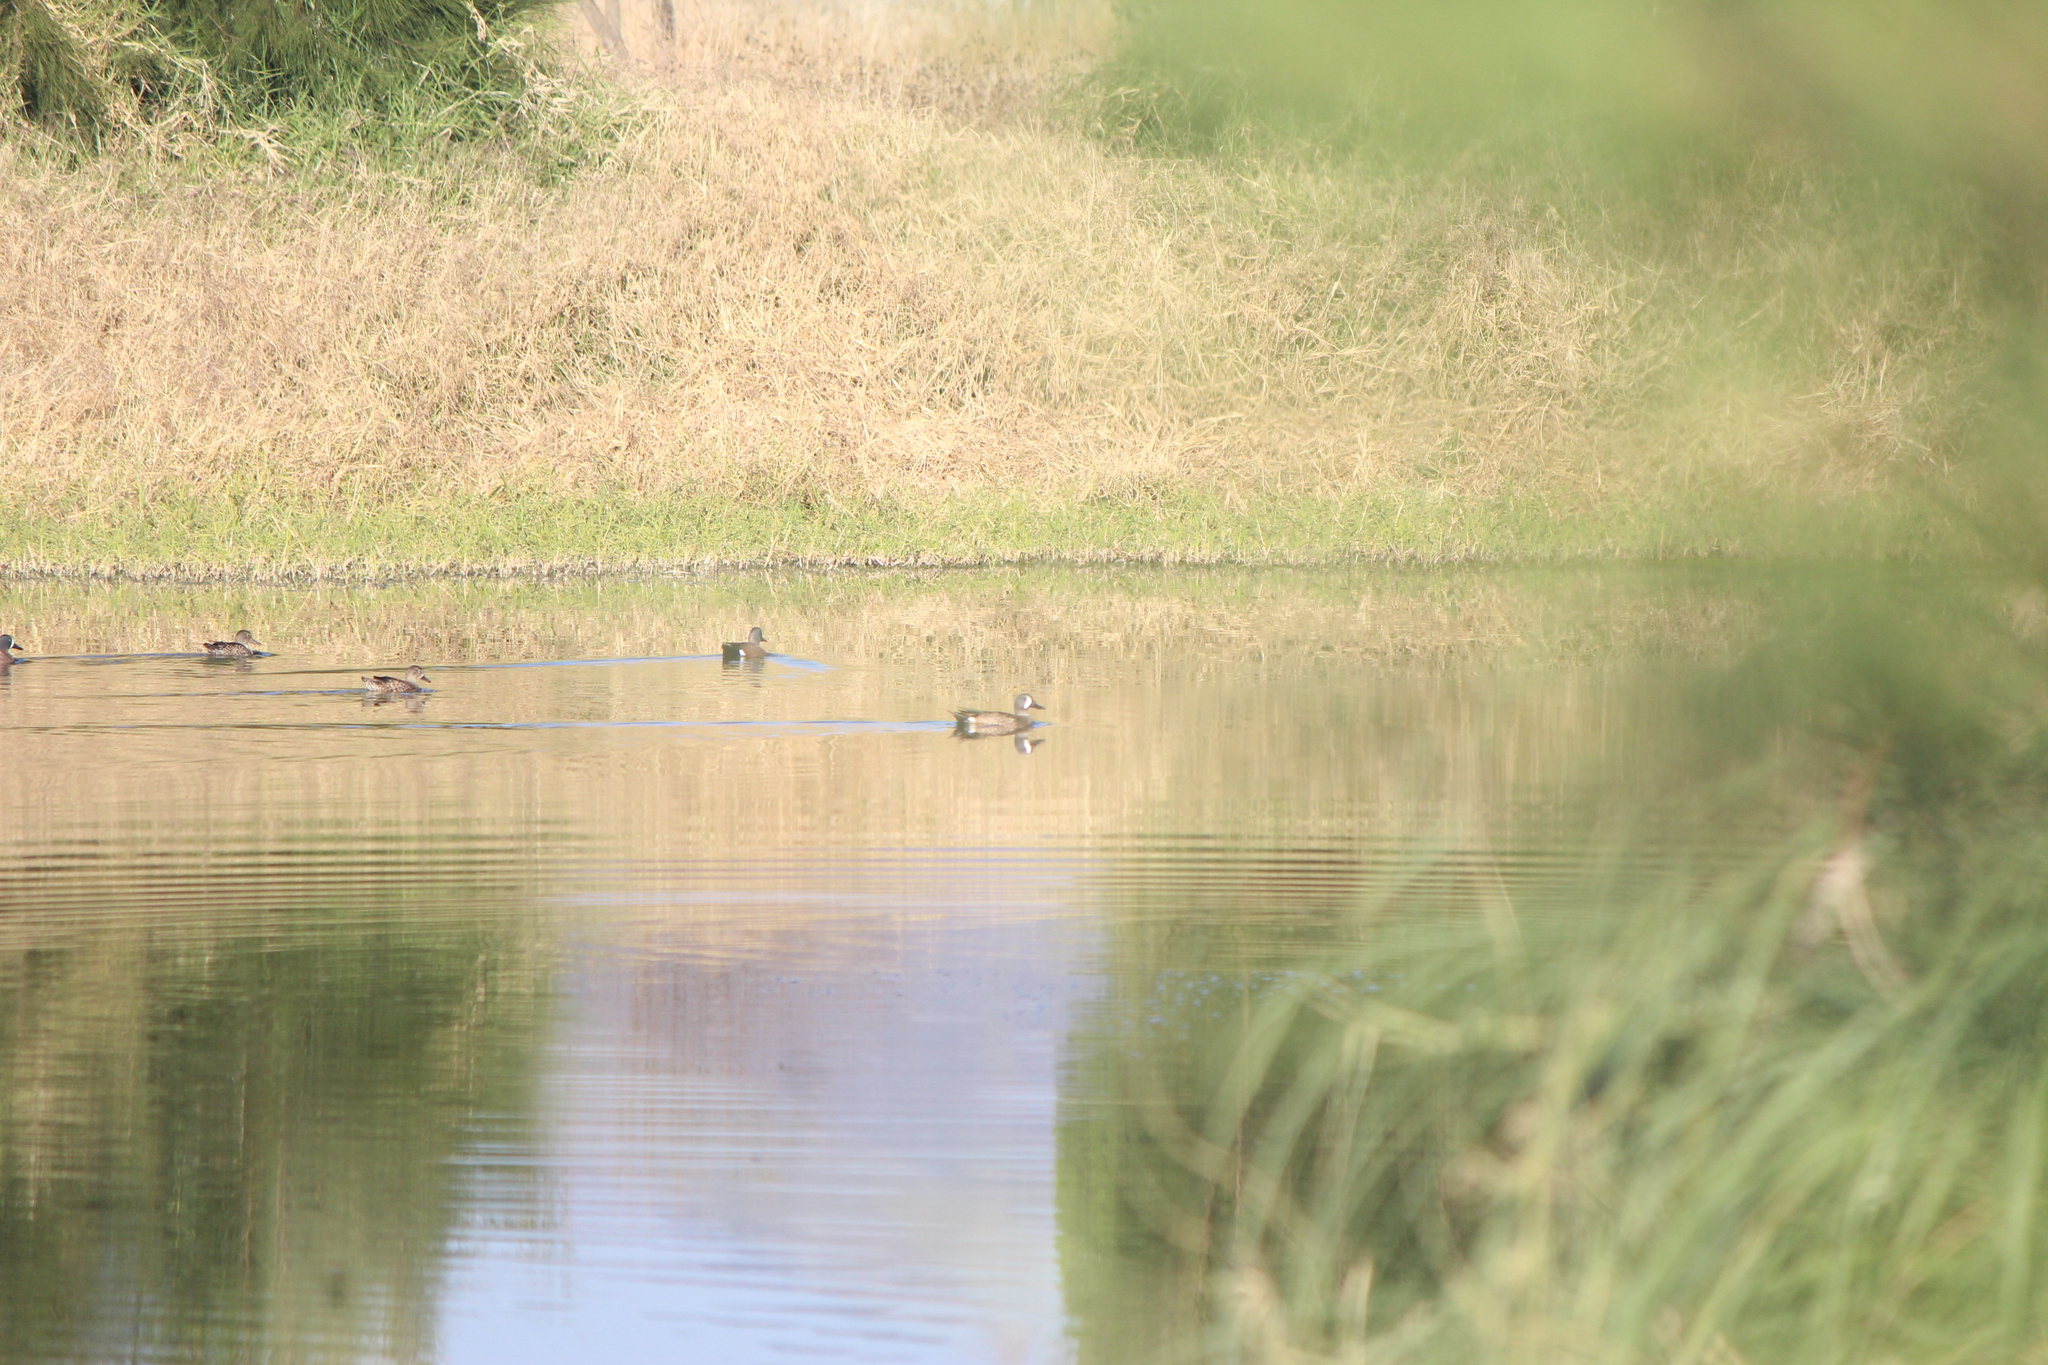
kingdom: Animalia
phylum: Chordata
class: Aves
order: Anseriformes
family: Anatidae
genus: Spatula
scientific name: Spatula discors
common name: Blue-winged teal
